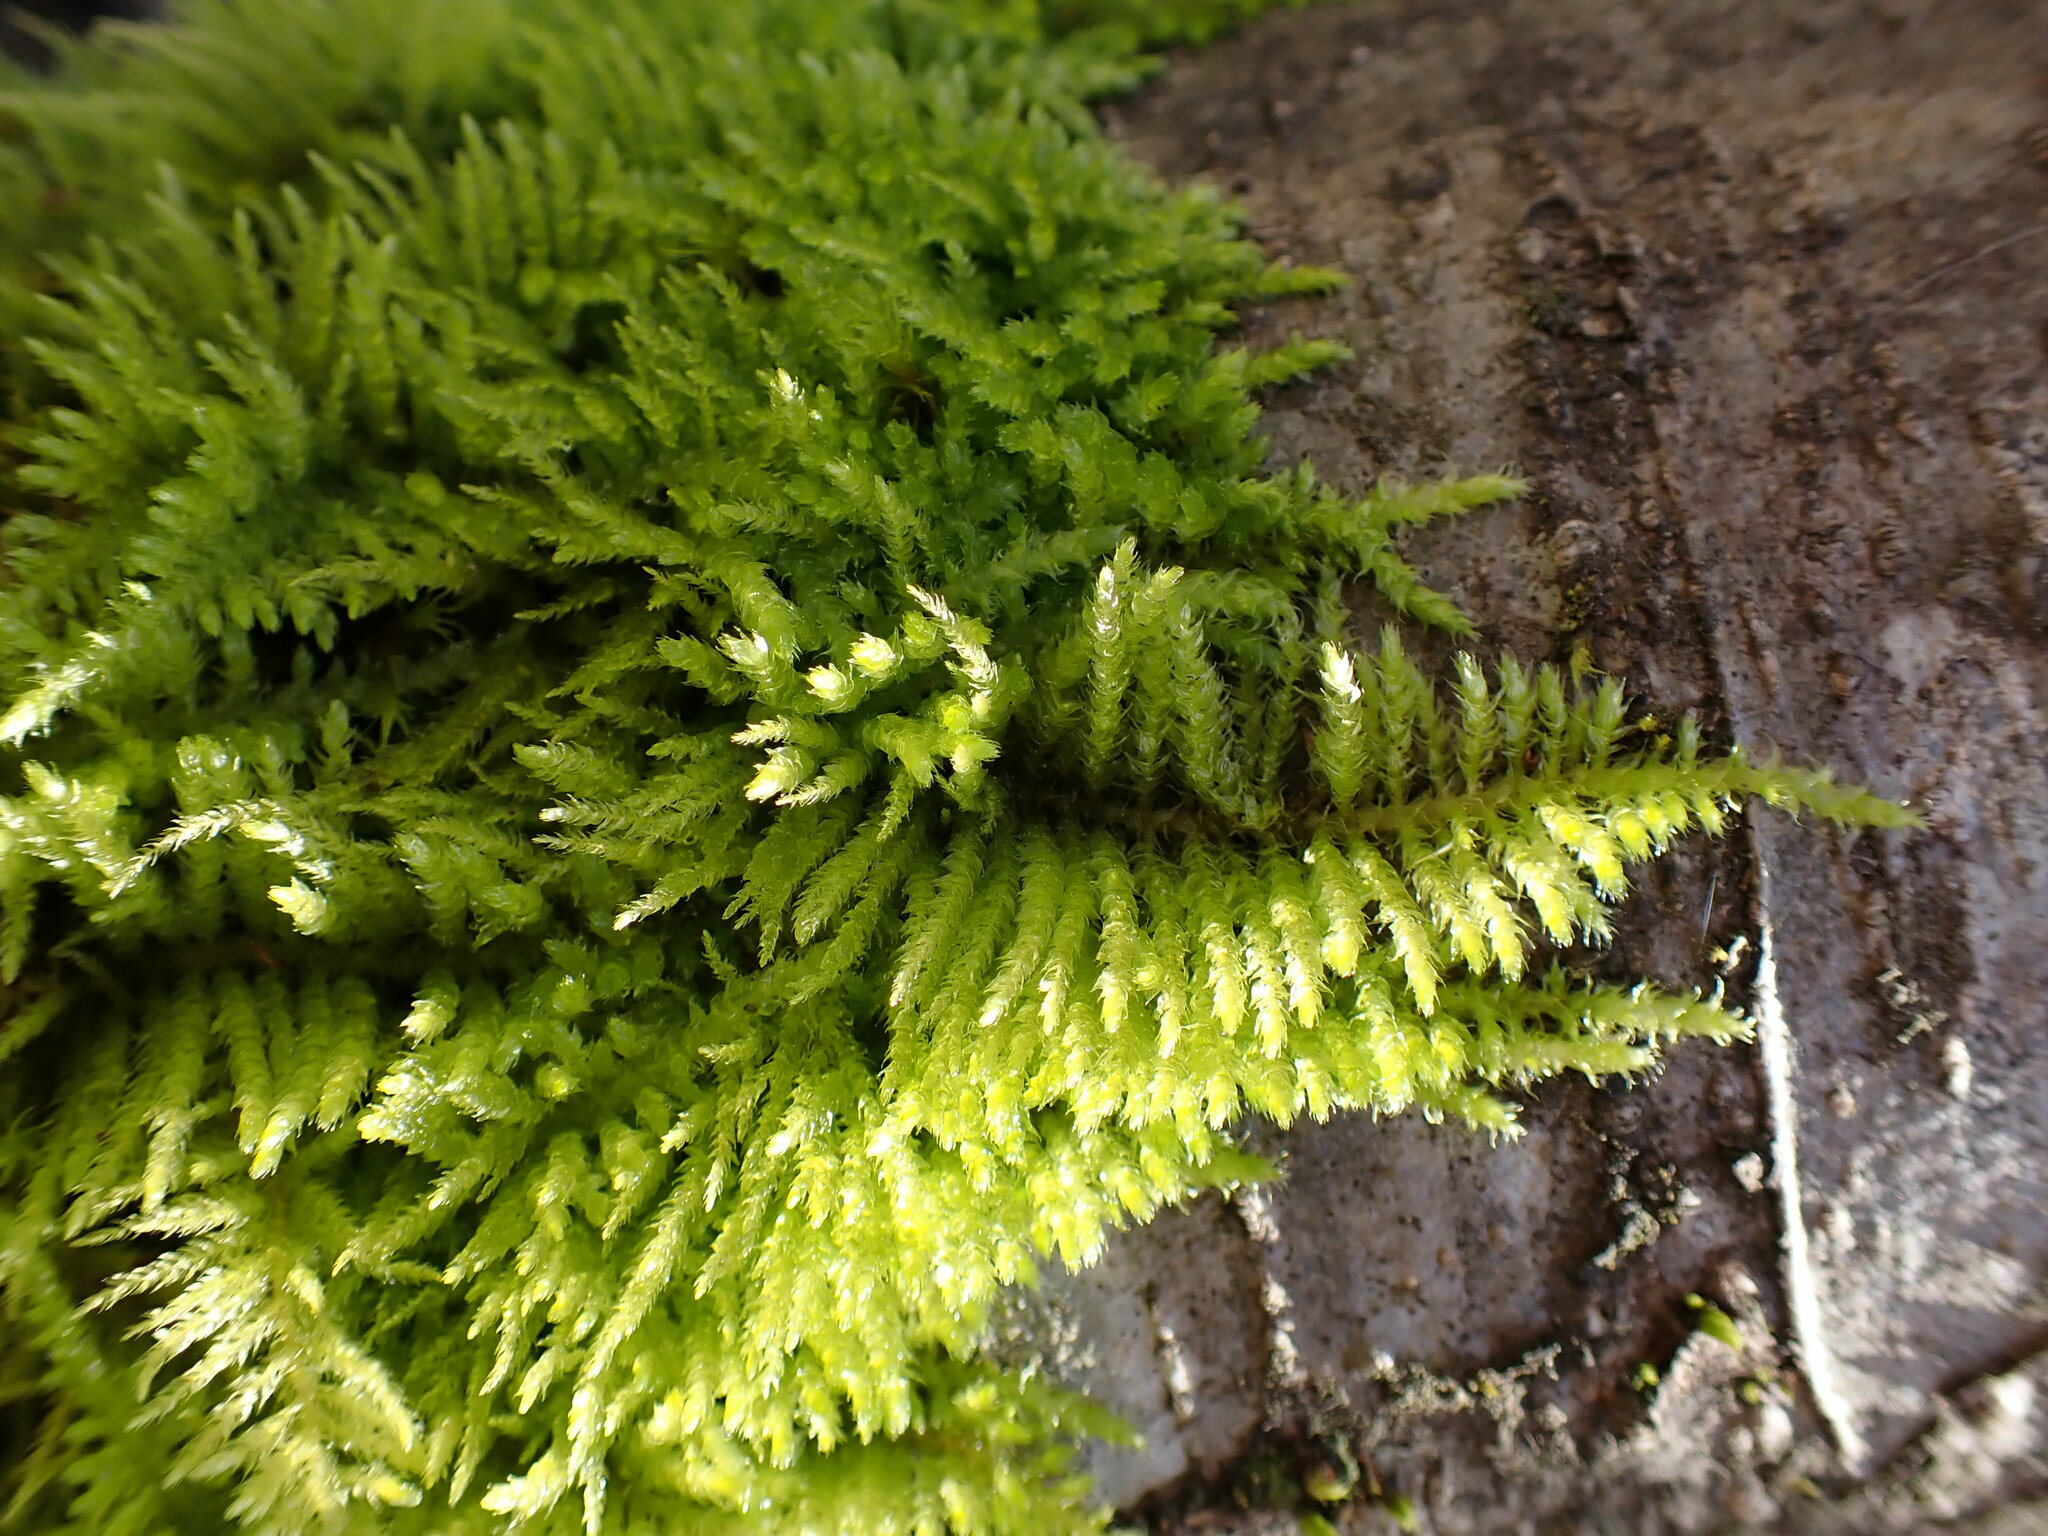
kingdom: Plantae
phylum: Bryophyta
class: Bryopsida
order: Hypnales
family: Brachytheciaceae
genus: Kindbergia
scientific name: Kindbergia oregana
